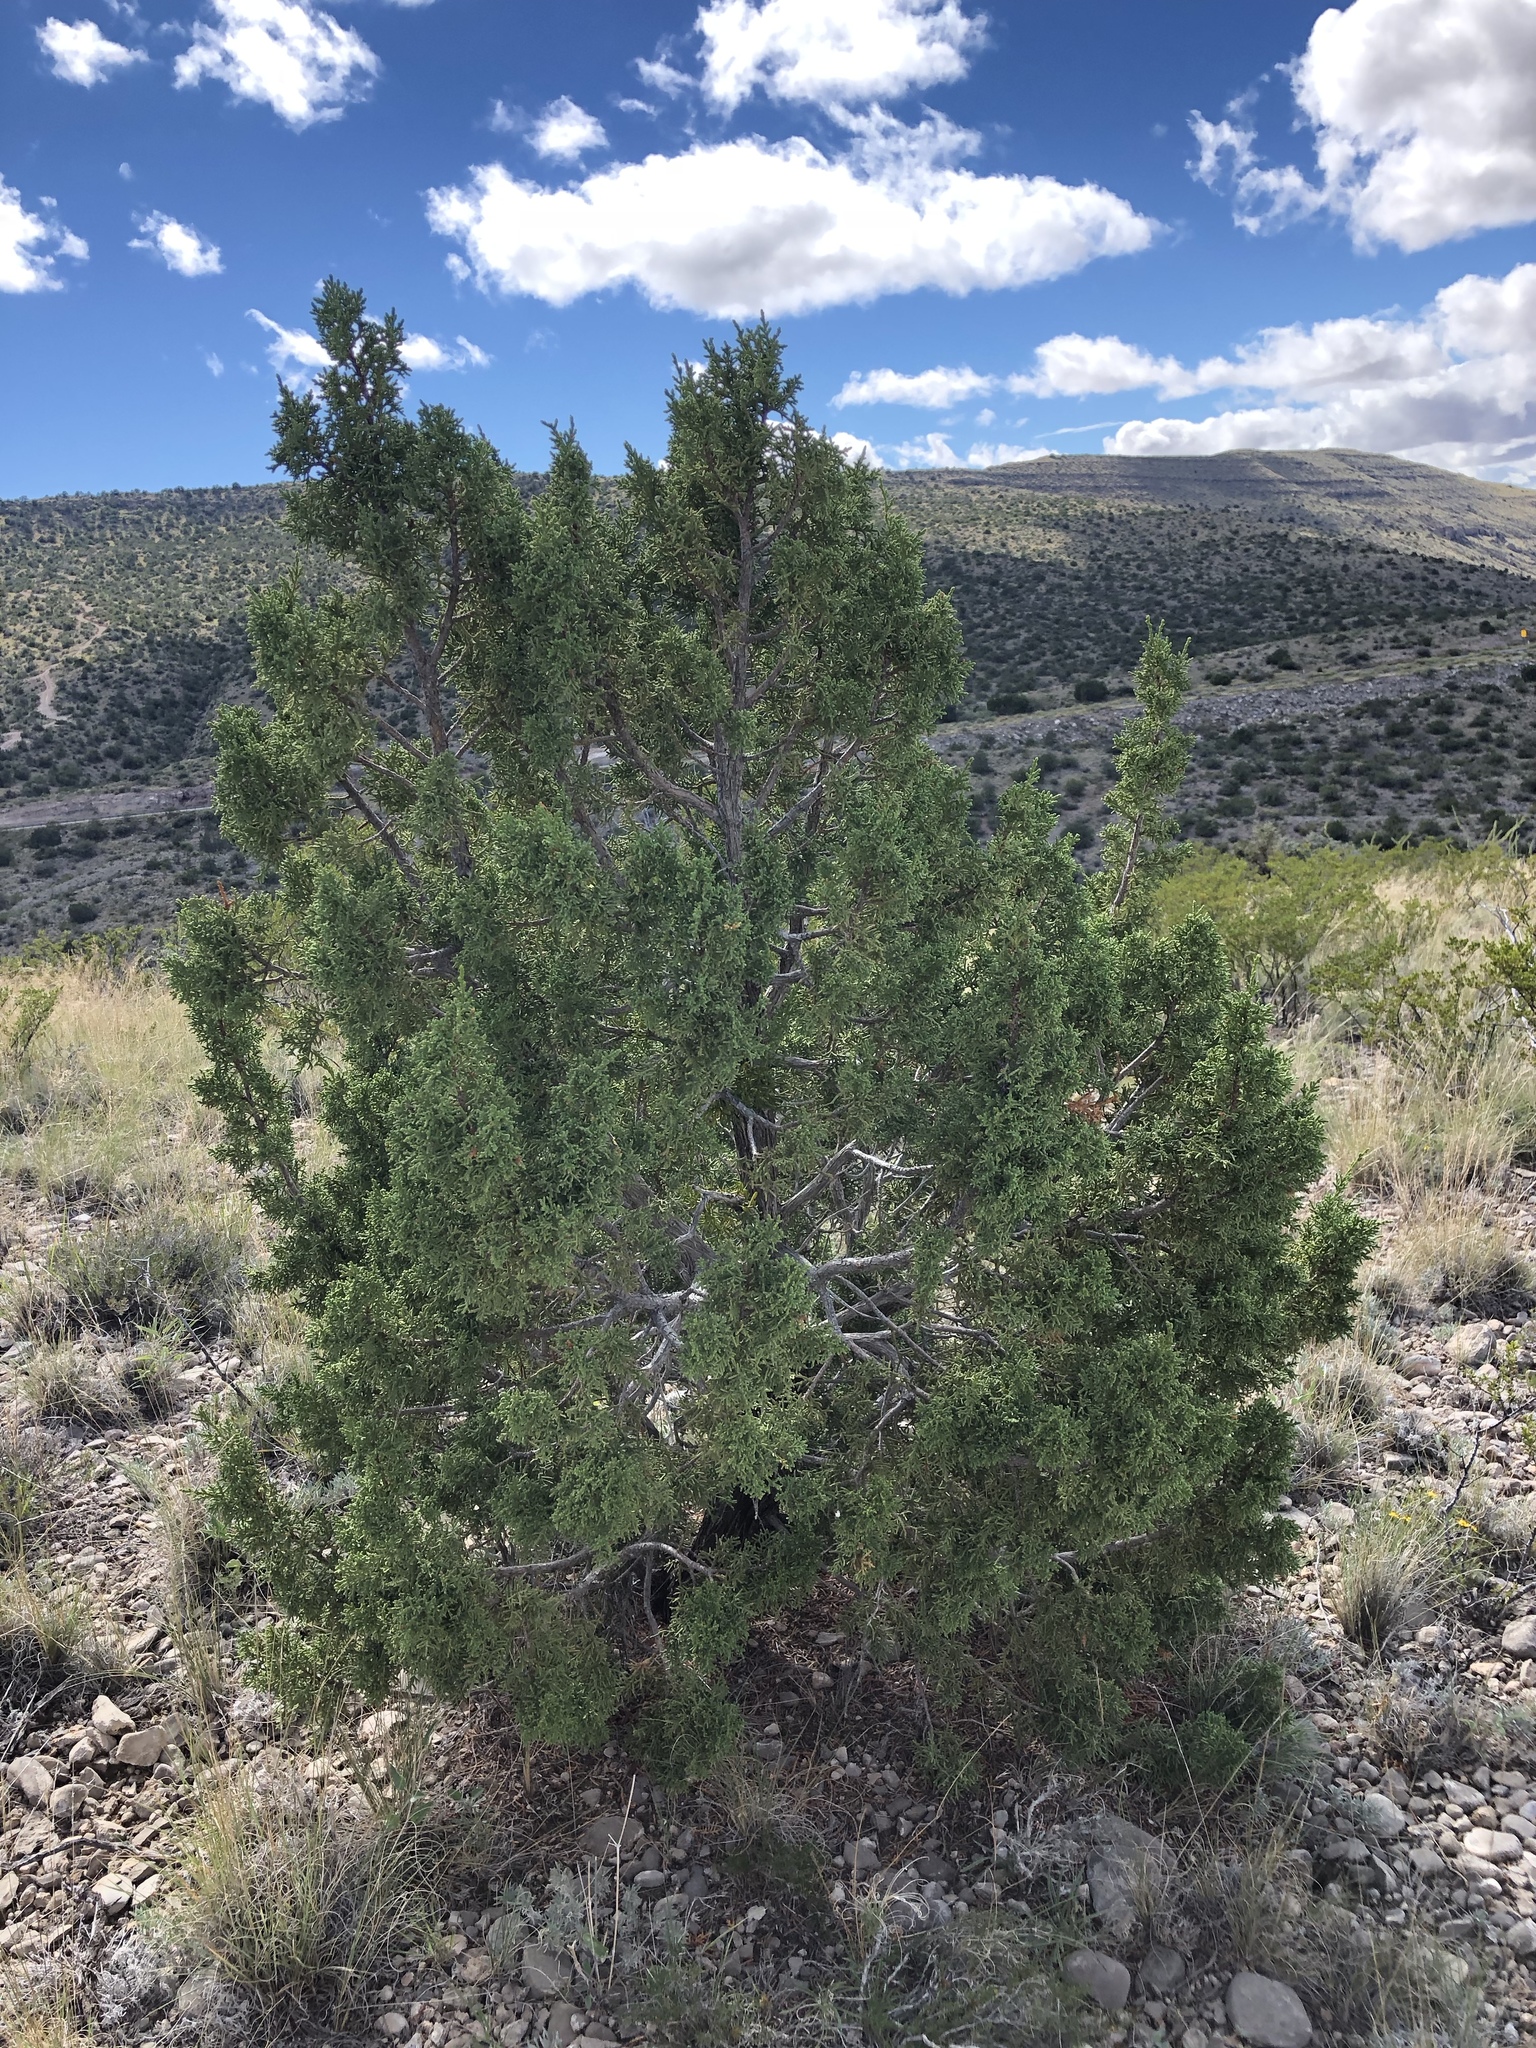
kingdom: Plantae
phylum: Tracheophyta
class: Pinopsida
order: Pinales
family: Cupressaceae
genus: Juniperus
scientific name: Juniperus monosperma
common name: One-seed juniper
